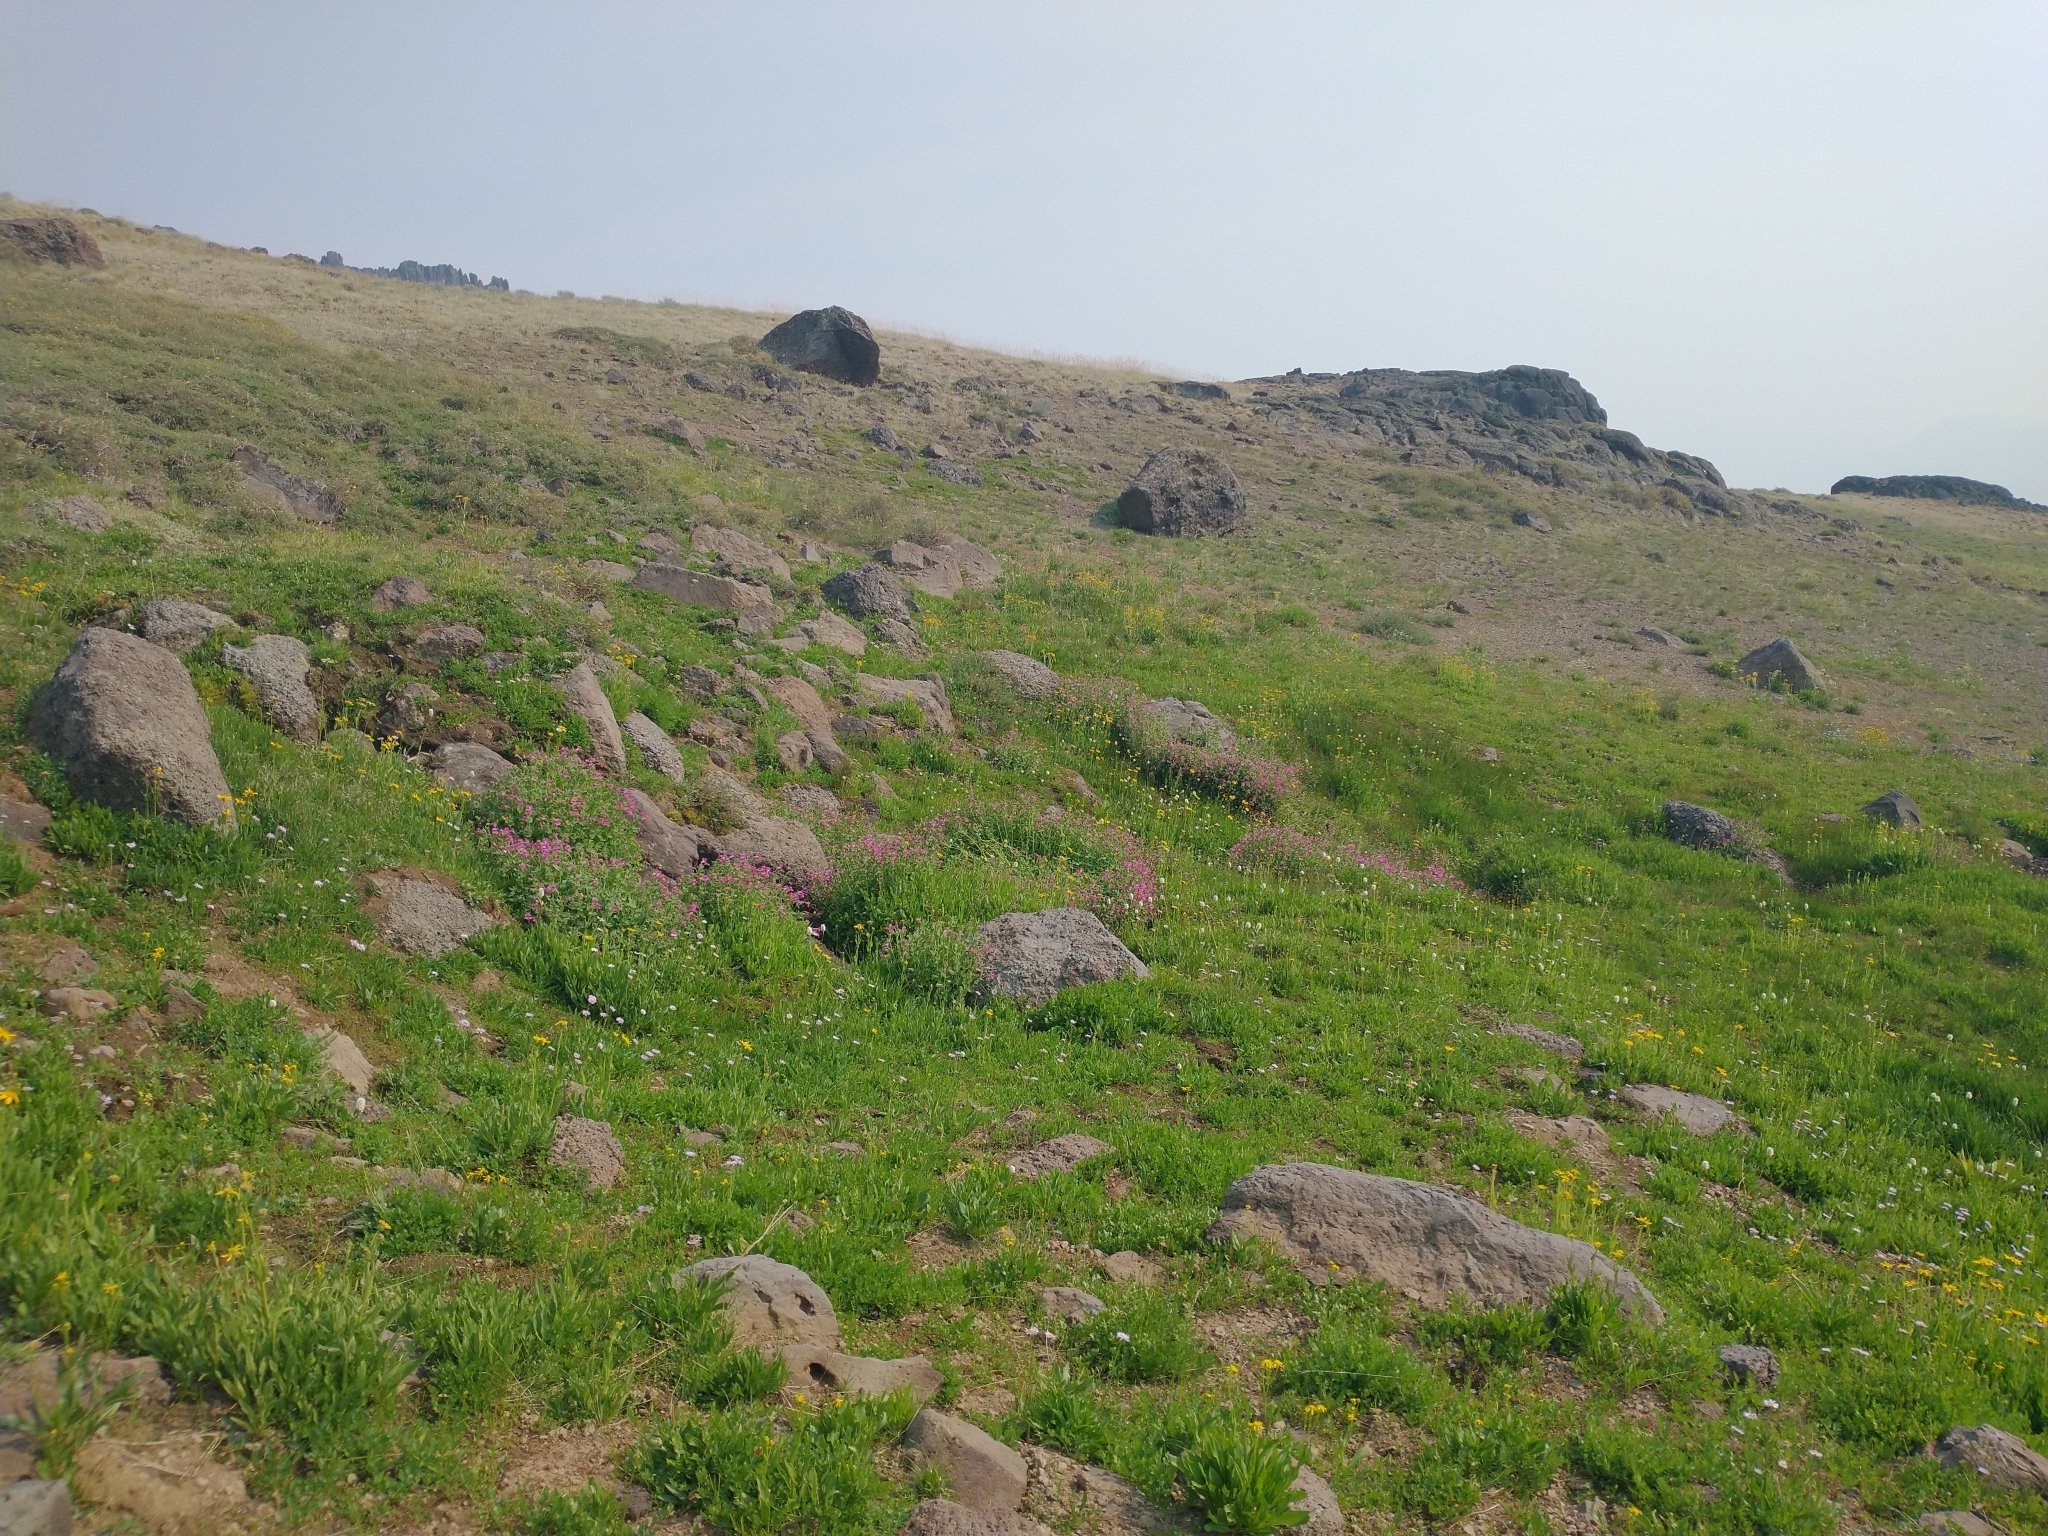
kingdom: Plantae
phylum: Tracheophyta
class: Magnoliopsida
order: Lamiales
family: Phrymaceae
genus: Erythranthe
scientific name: Erythranthe lewisii
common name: Lewis's monkey-flower
